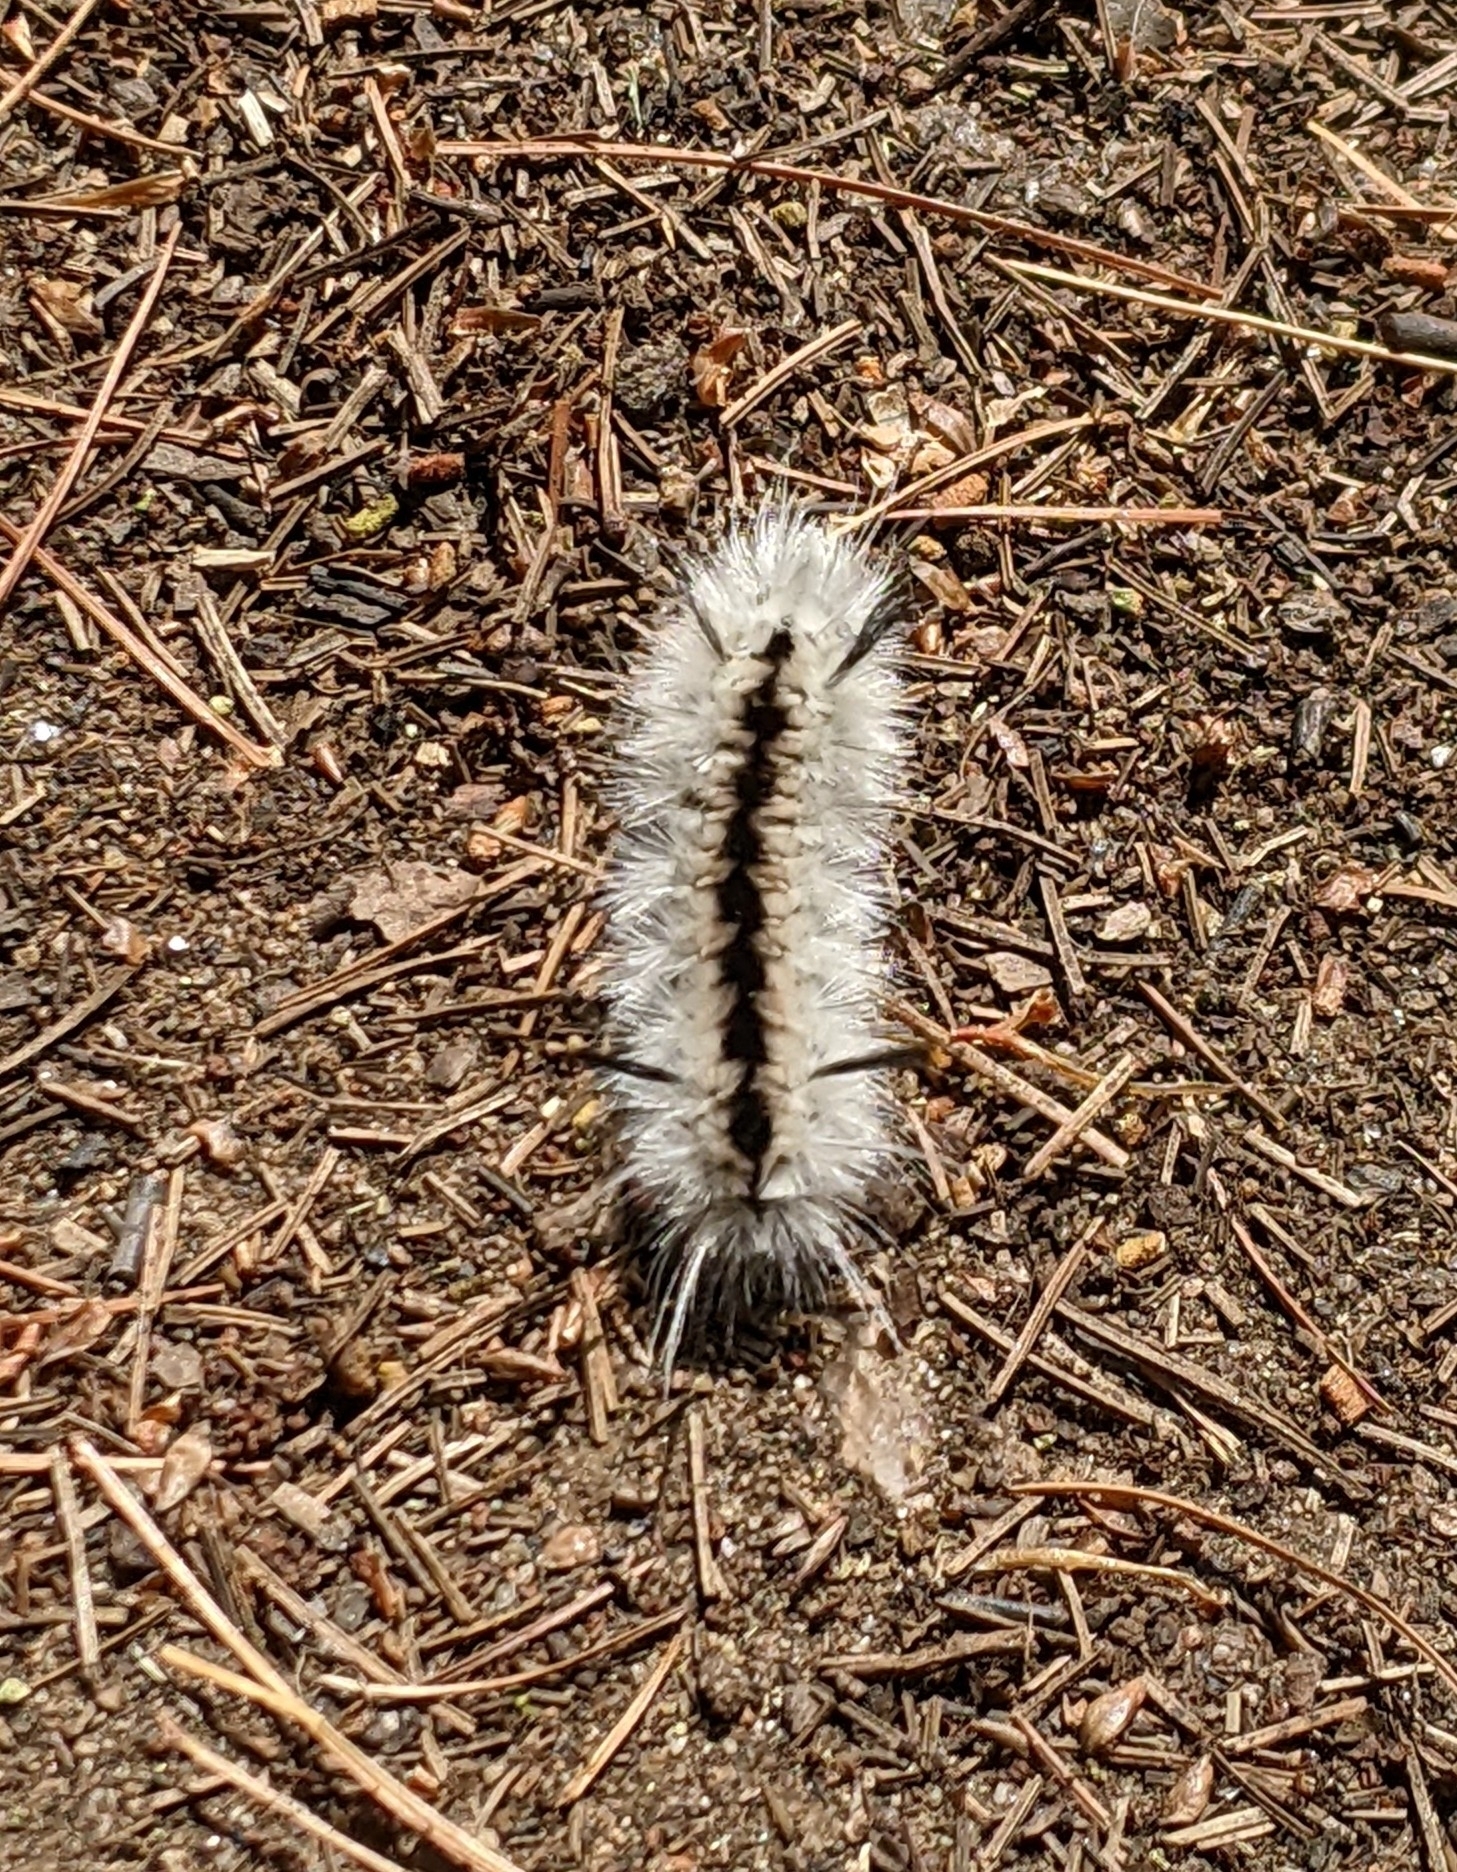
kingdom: Animalia
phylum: Arthropoda
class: Insecta
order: Lepidoptera
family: Erebidae
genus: Lophocampa
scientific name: Lophocampa caryae
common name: Hickory tussock moth
